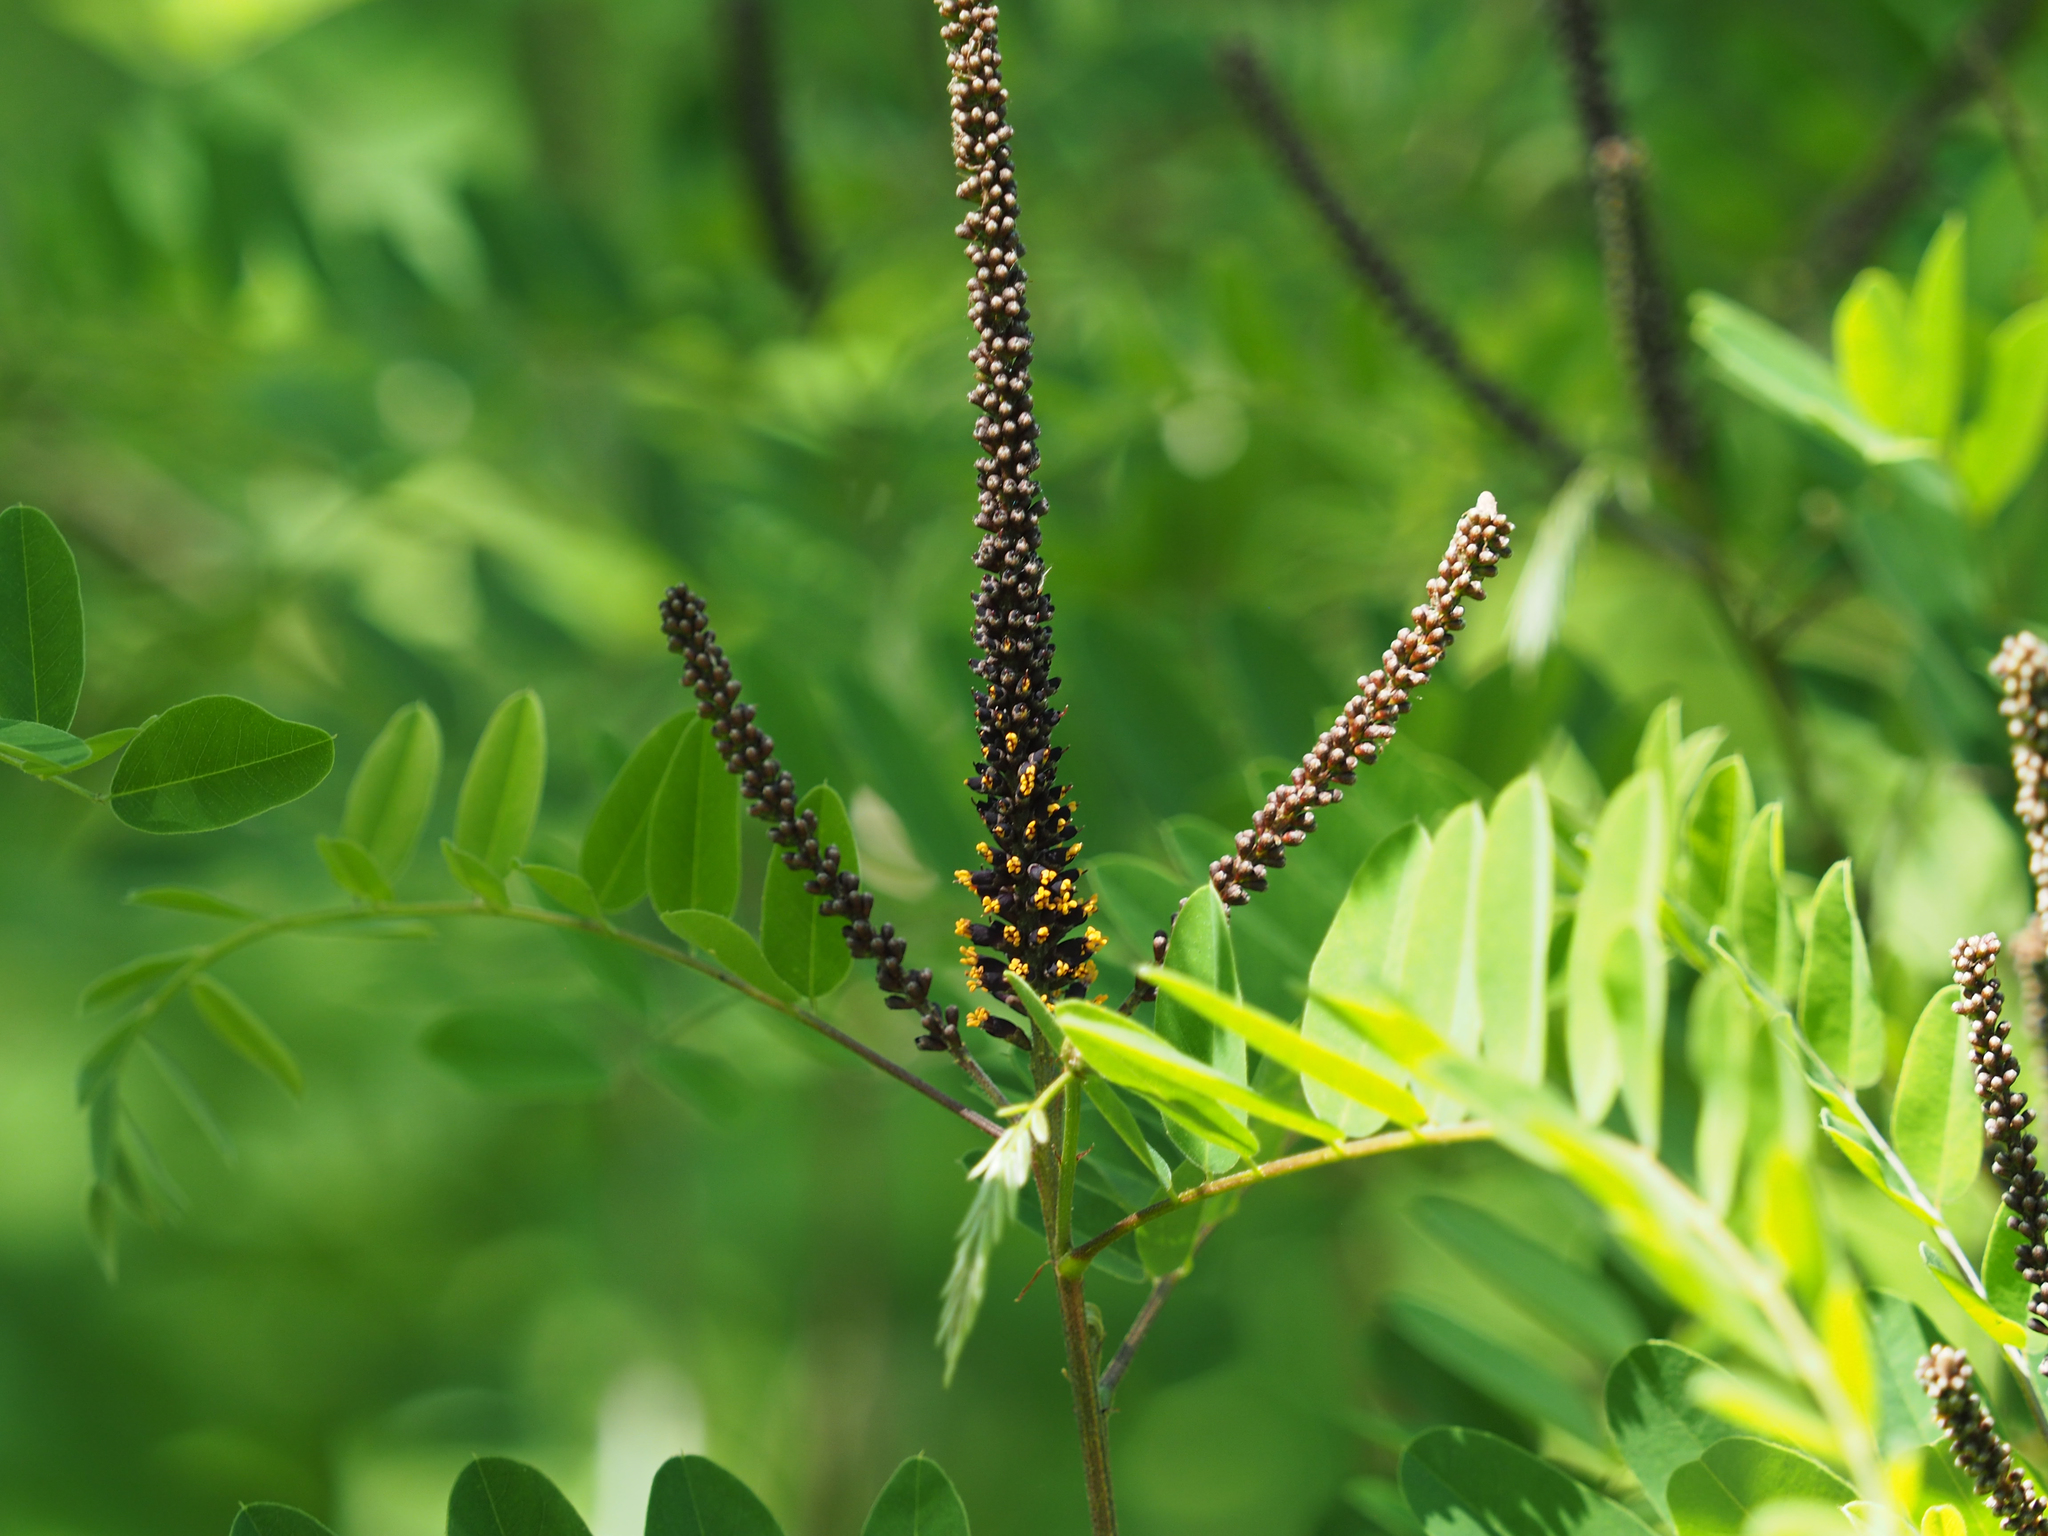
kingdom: Plantae
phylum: Tracheophyta
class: Magnoliopsida
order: Fabales
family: Fabaceae
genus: Amorpha
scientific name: Amorpha fruticosa
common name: False indigo
